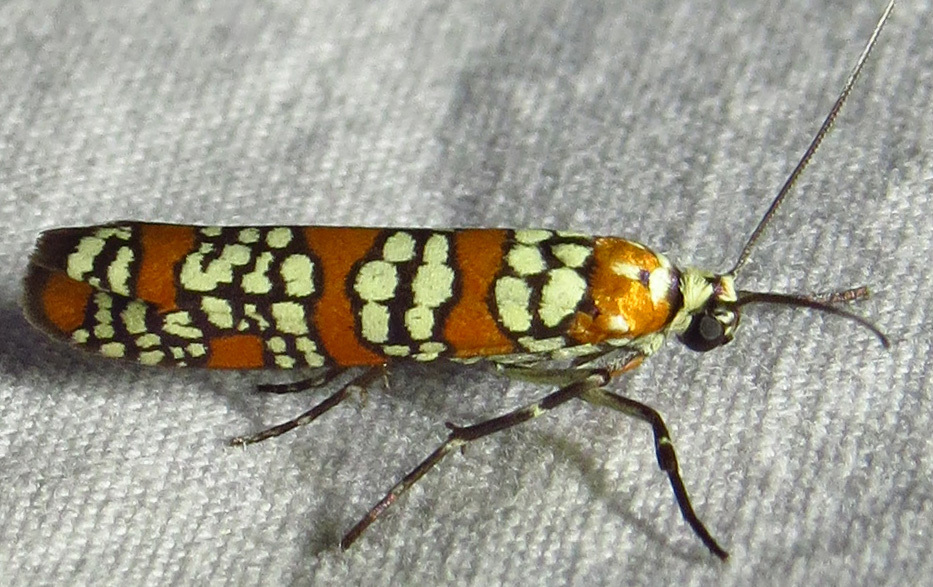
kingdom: Animalia
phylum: Arthropoda
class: Insecta
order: Lepidoptera
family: Attevidae
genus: Atteva
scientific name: Atteva punctella
